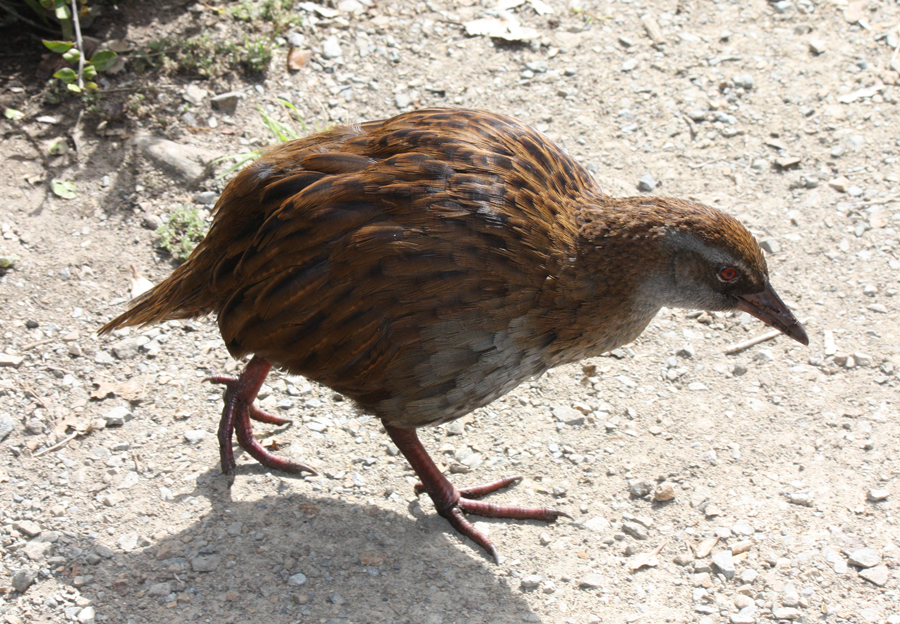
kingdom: Animalia
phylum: Chordata
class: Aves
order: Gruiformes
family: Rallidae
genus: Gallirallus
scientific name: Gallirallus australis
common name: Weka
